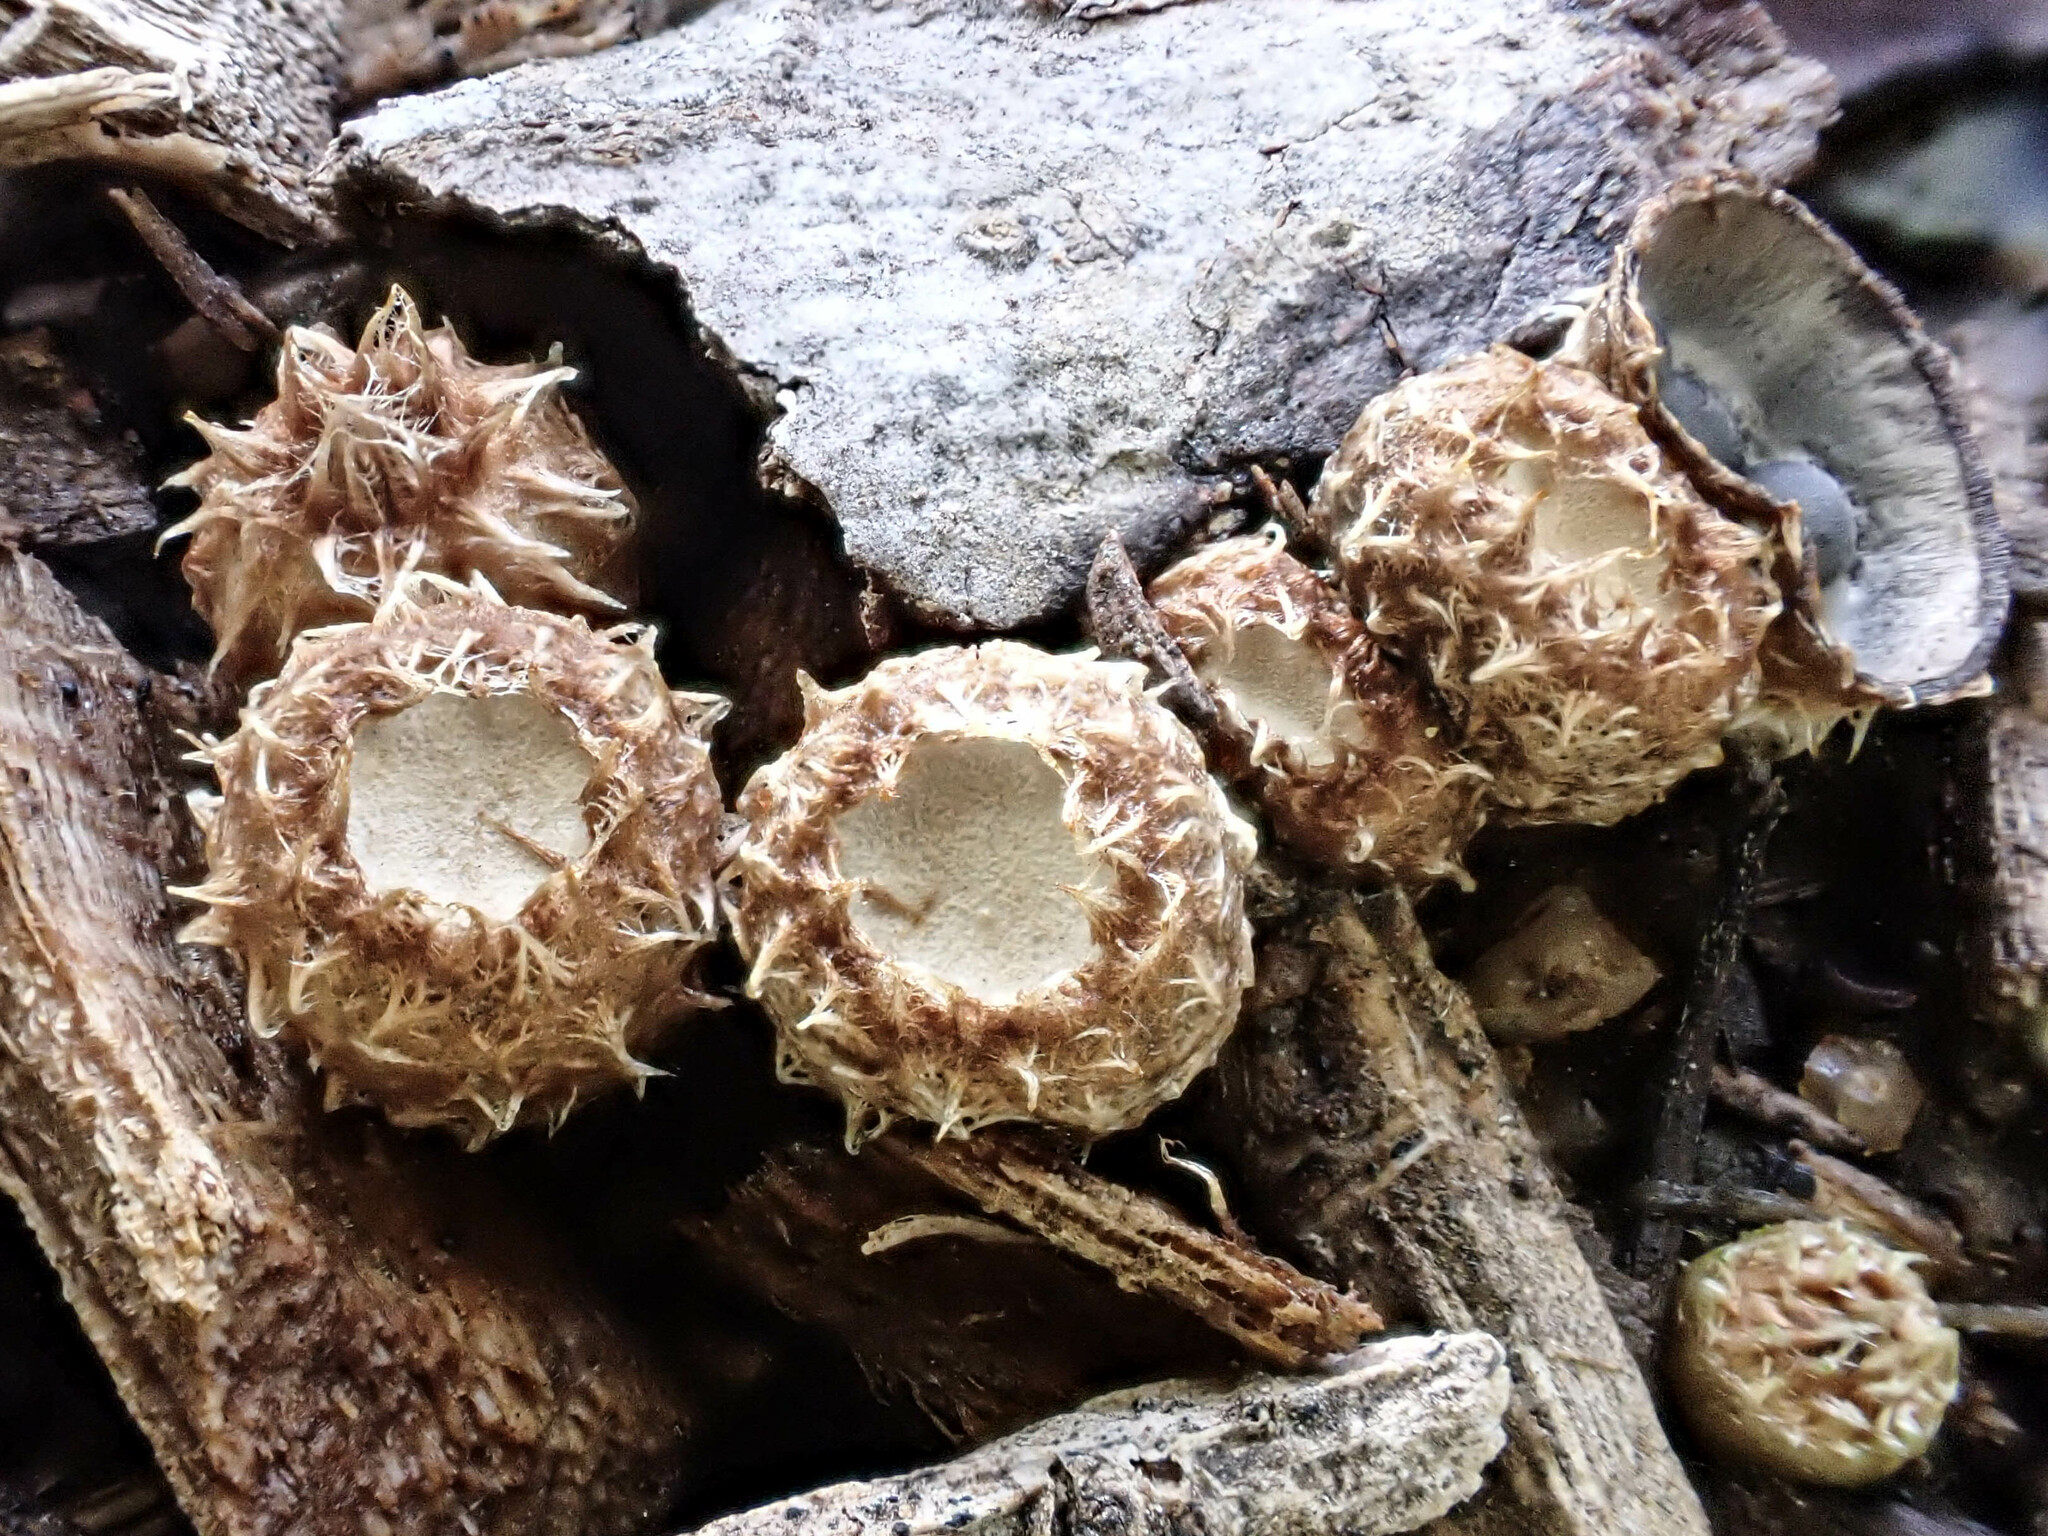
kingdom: Fungi
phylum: Basidiomycota
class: Agaricomycetes
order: Agaricales
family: Agaricaceae
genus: Cyathus
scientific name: Cyathus stercoreus
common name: Dung bird's nest
